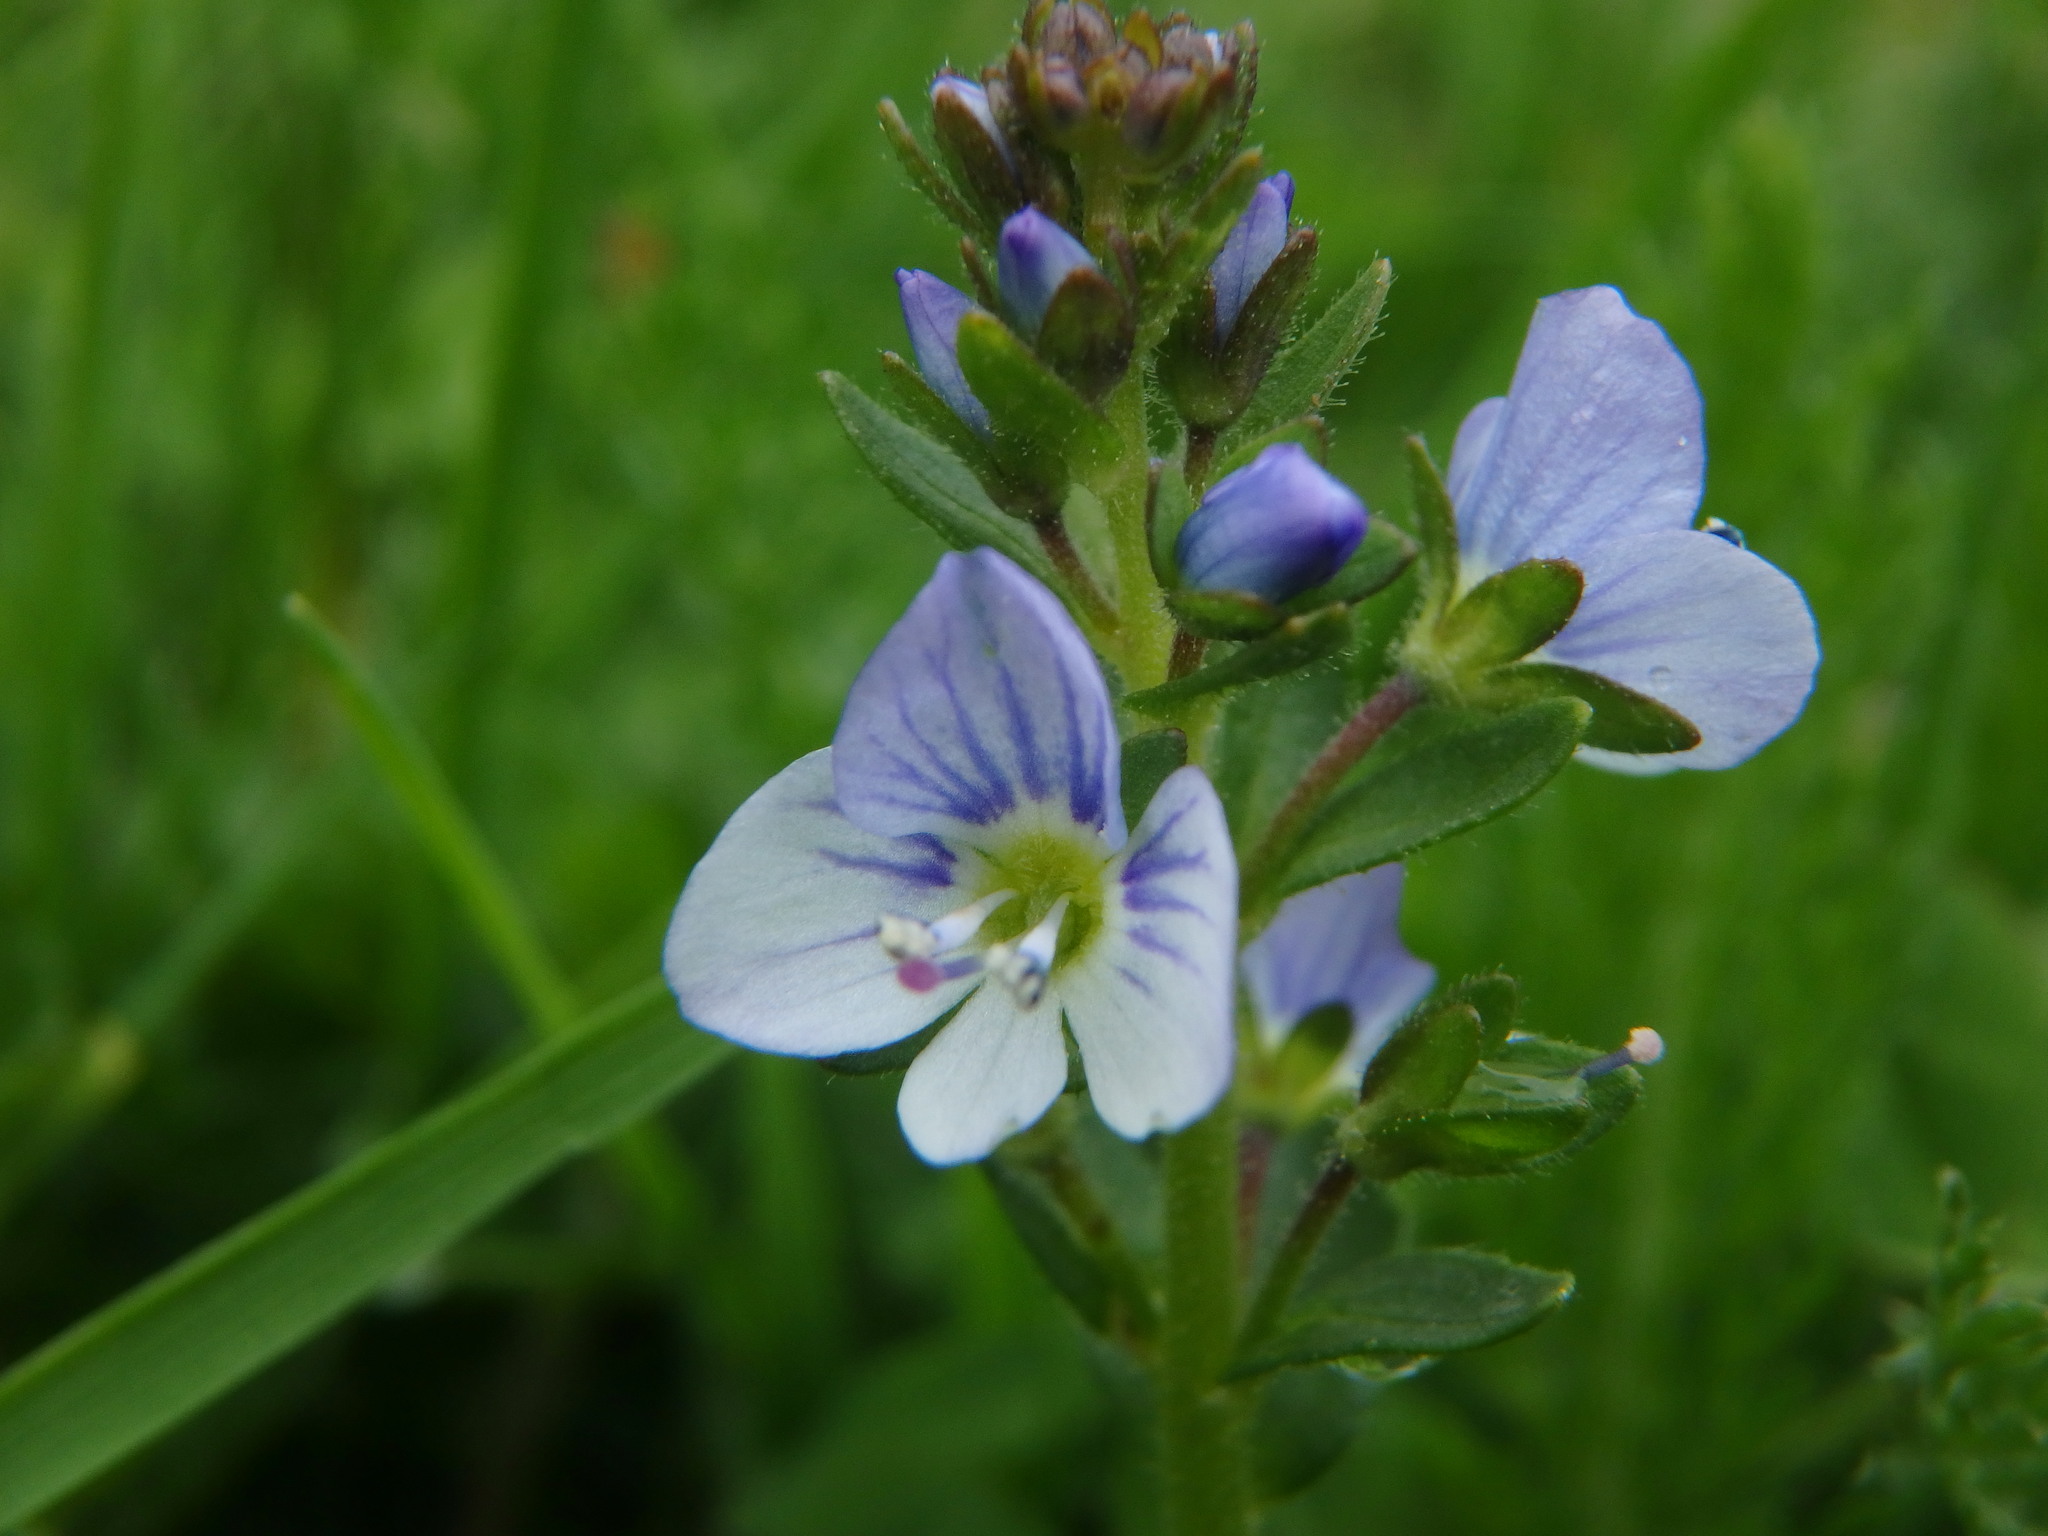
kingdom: Plantae
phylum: Tracheophyta
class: Magnoliopsida
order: Lamiales
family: Plantaginaceae
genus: Veronica
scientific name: Veronica serpyllifolia
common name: Thyme-leaved speedwell
